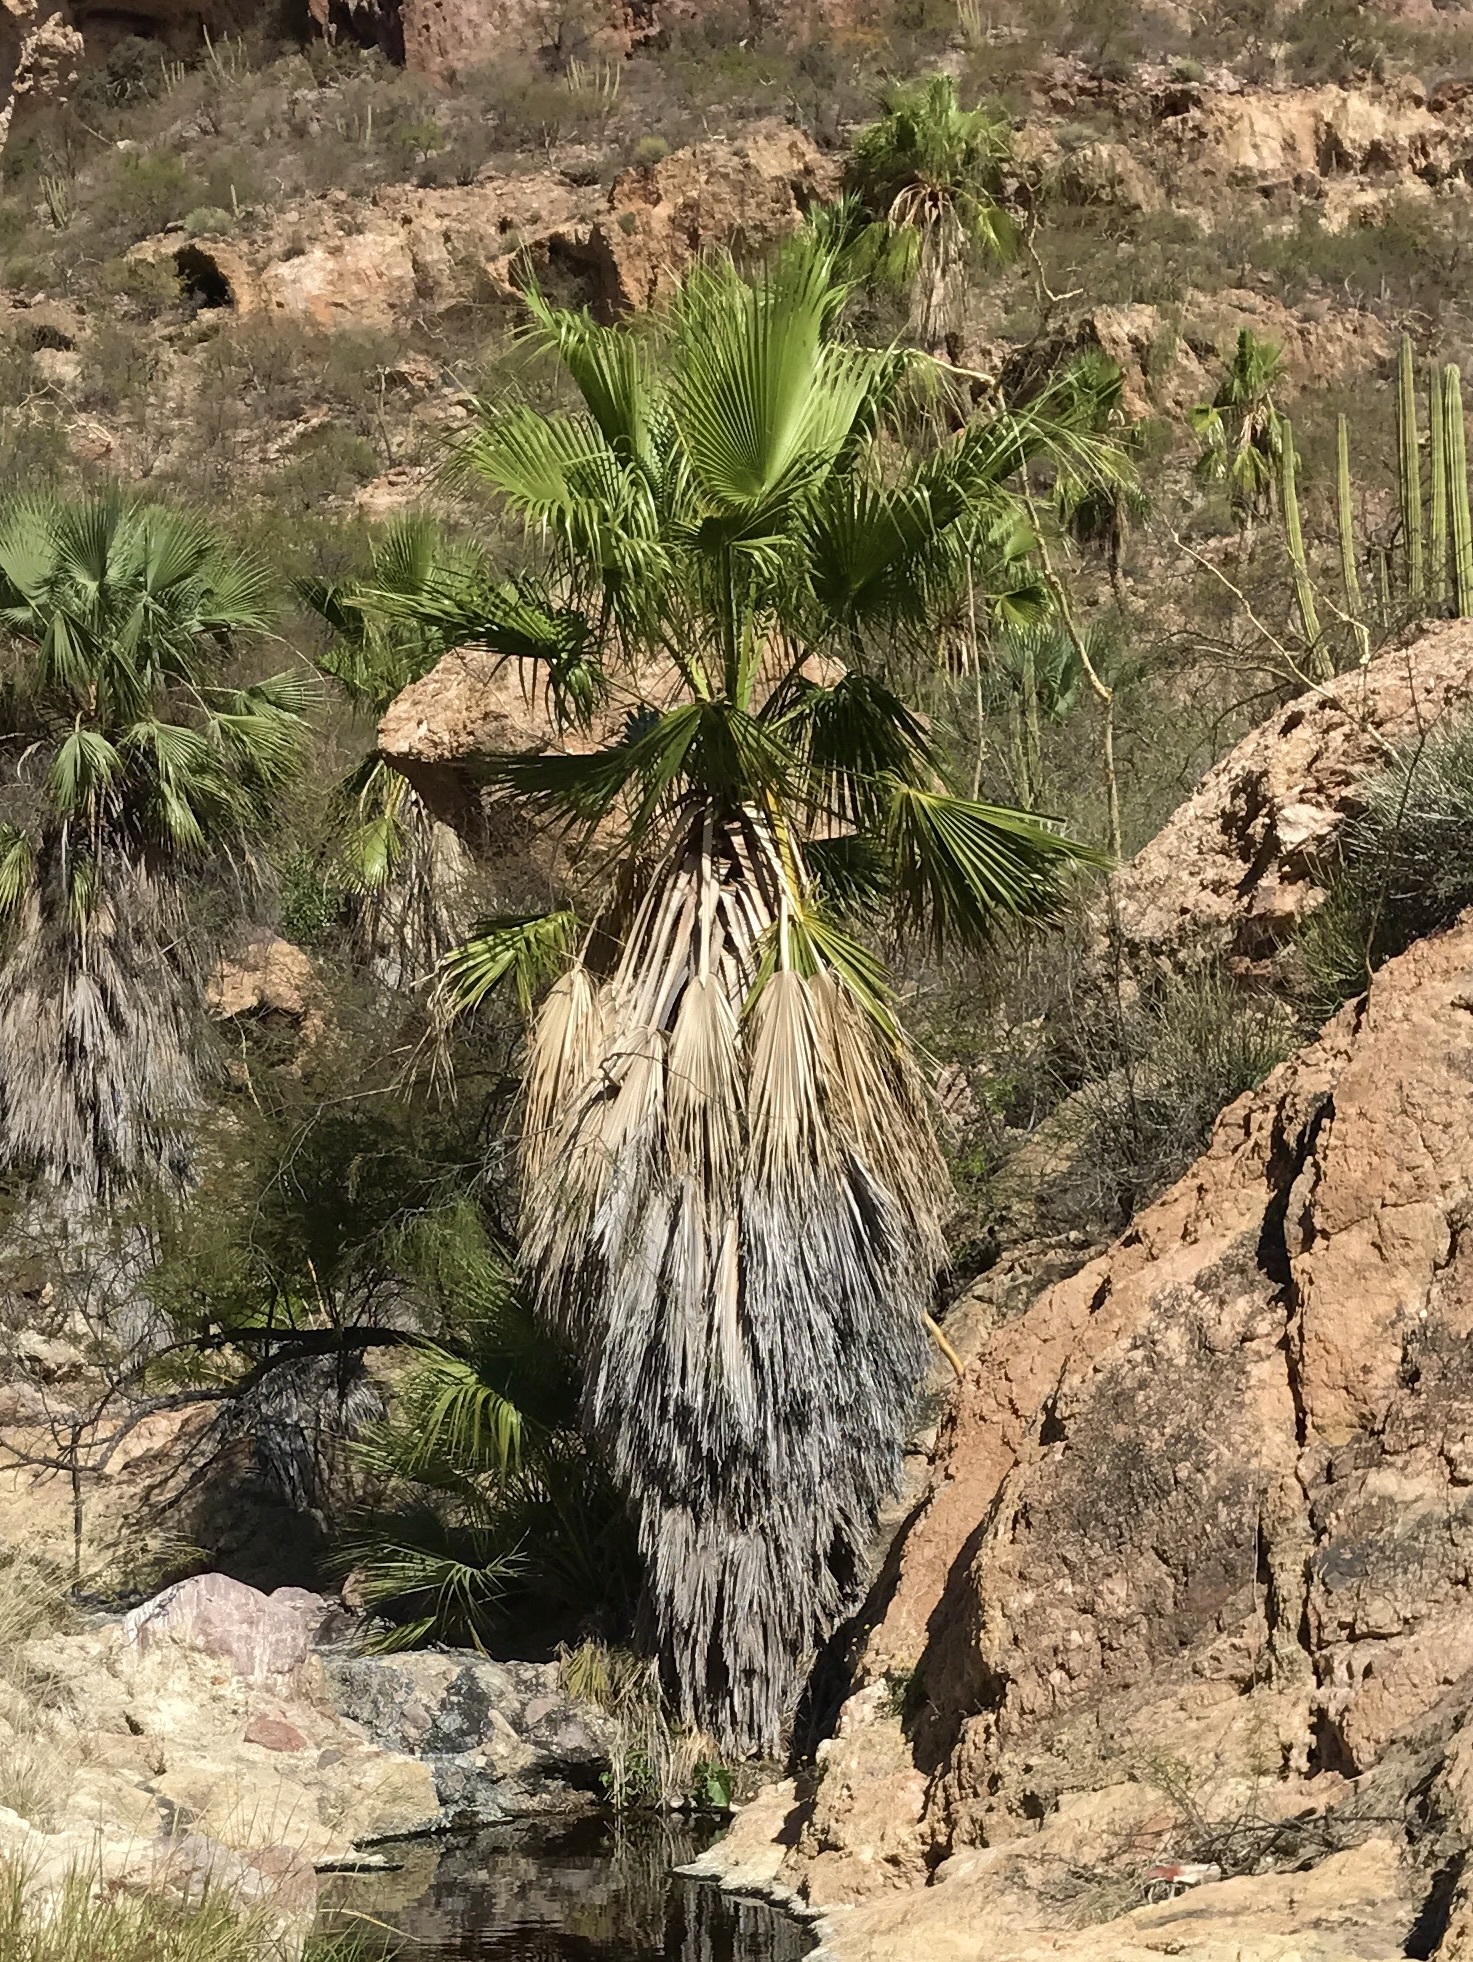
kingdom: Plantae
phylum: Tracheophyta
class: Liliopsida
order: Arecales
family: Arecaceae
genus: Washingtonia
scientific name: Washingtonia robusta
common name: Mexican fan palm
